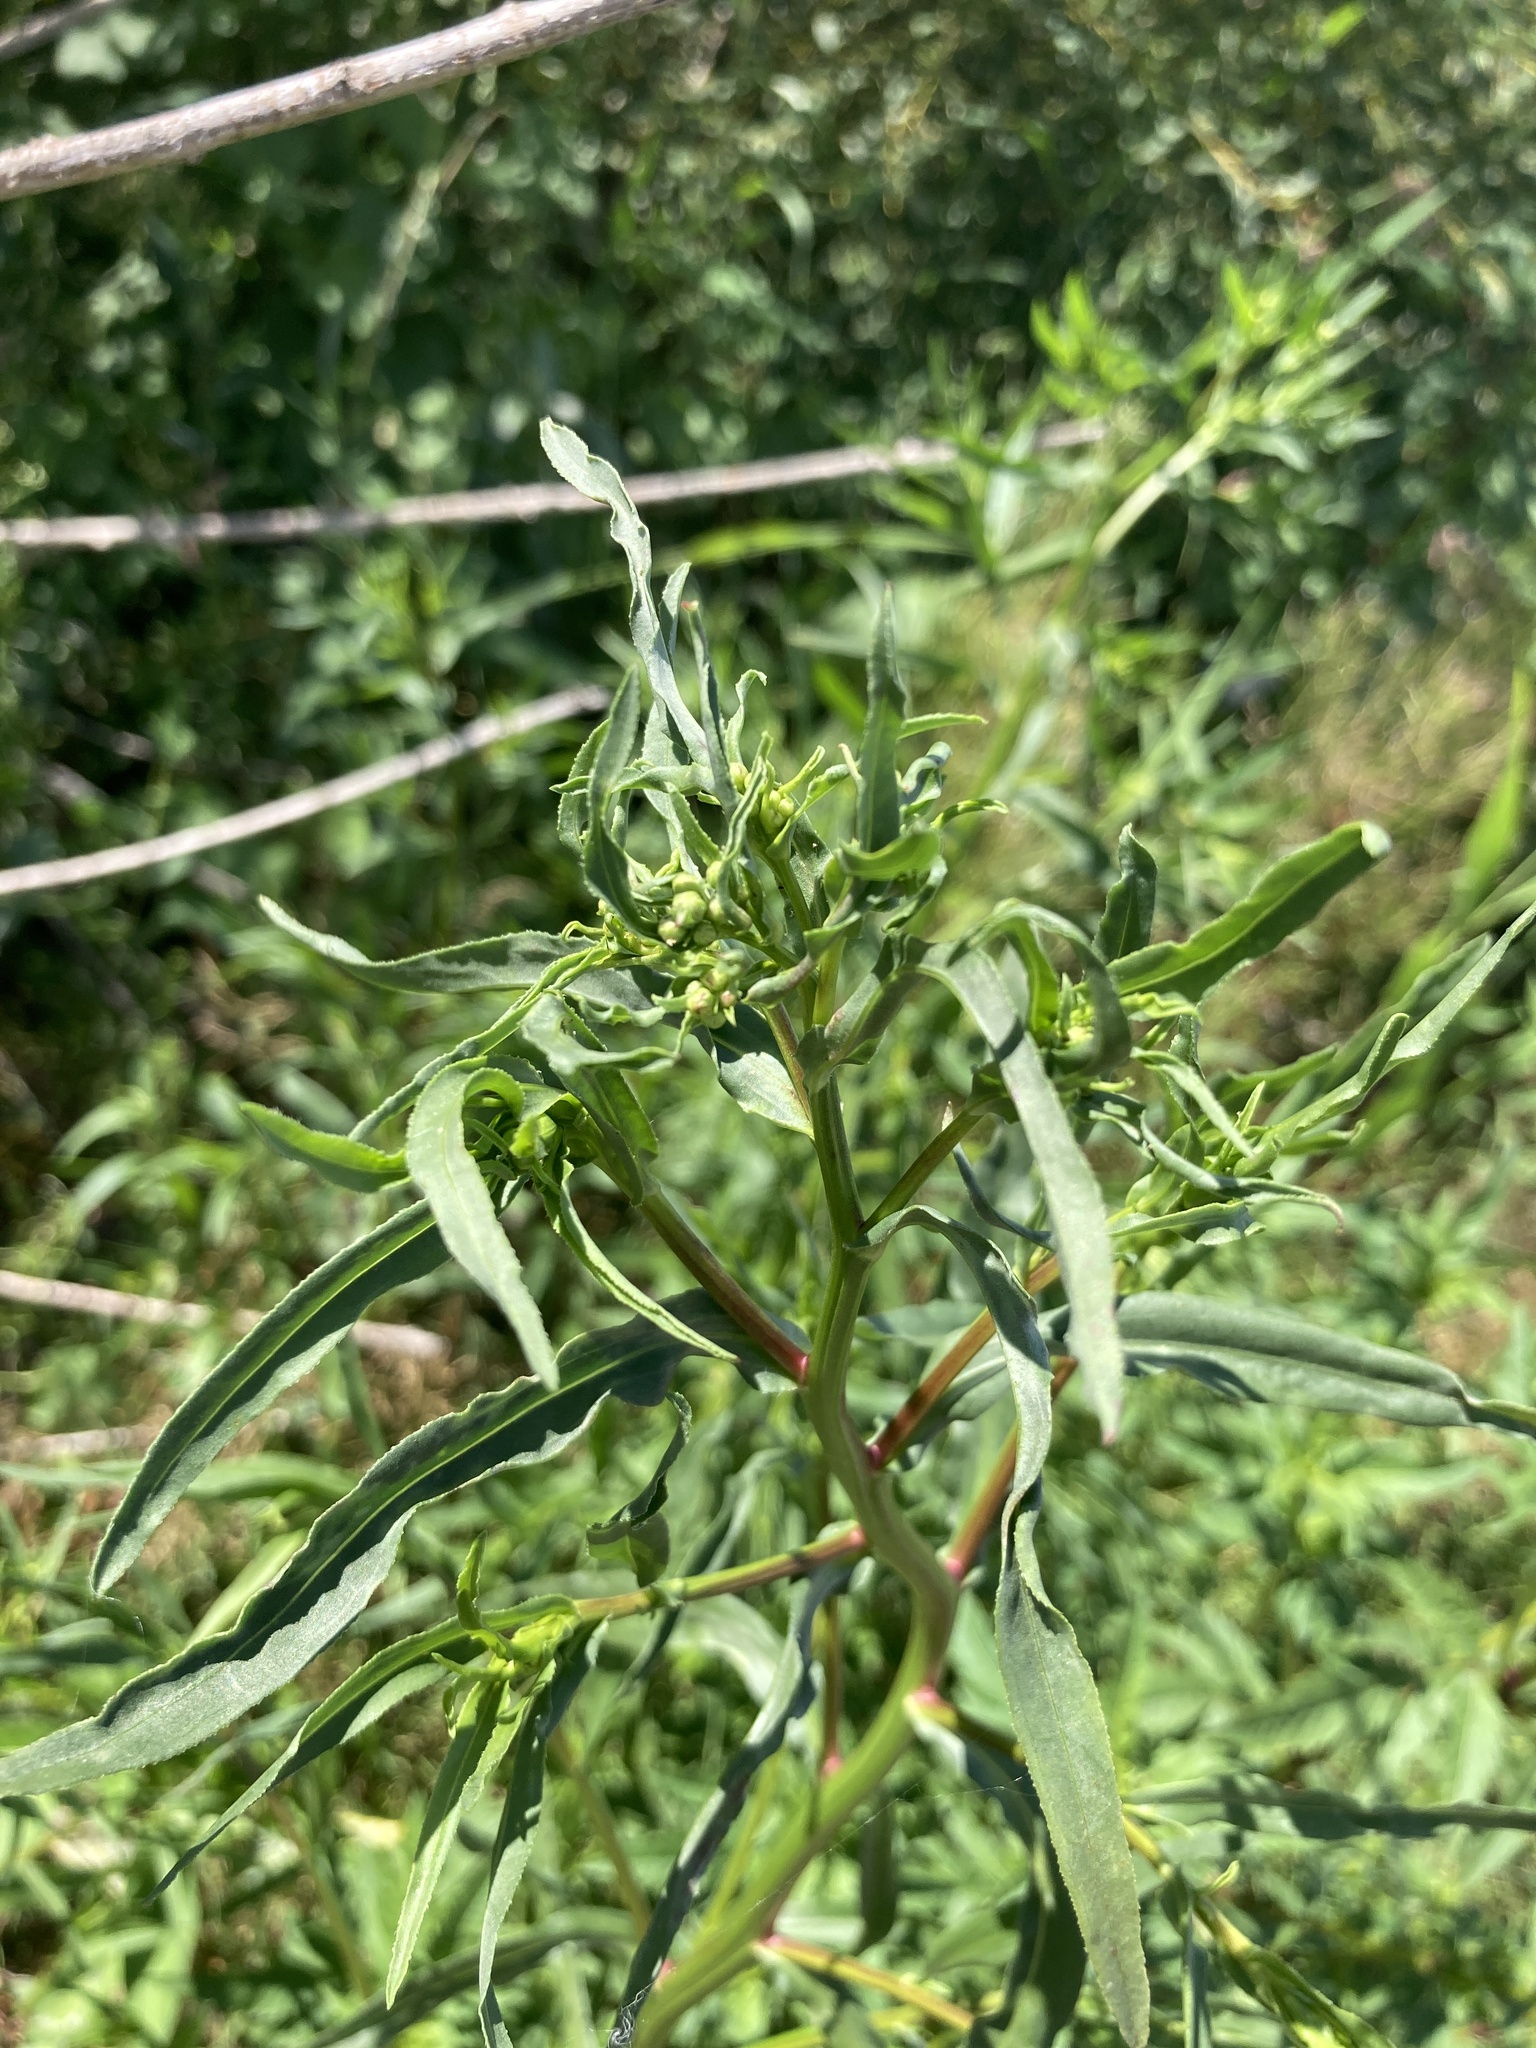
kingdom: Plantae
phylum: Tracheophyta
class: Magnoliopsida
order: Asterales
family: Asteraceae
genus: Achillea
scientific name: Achillea salicifolia
